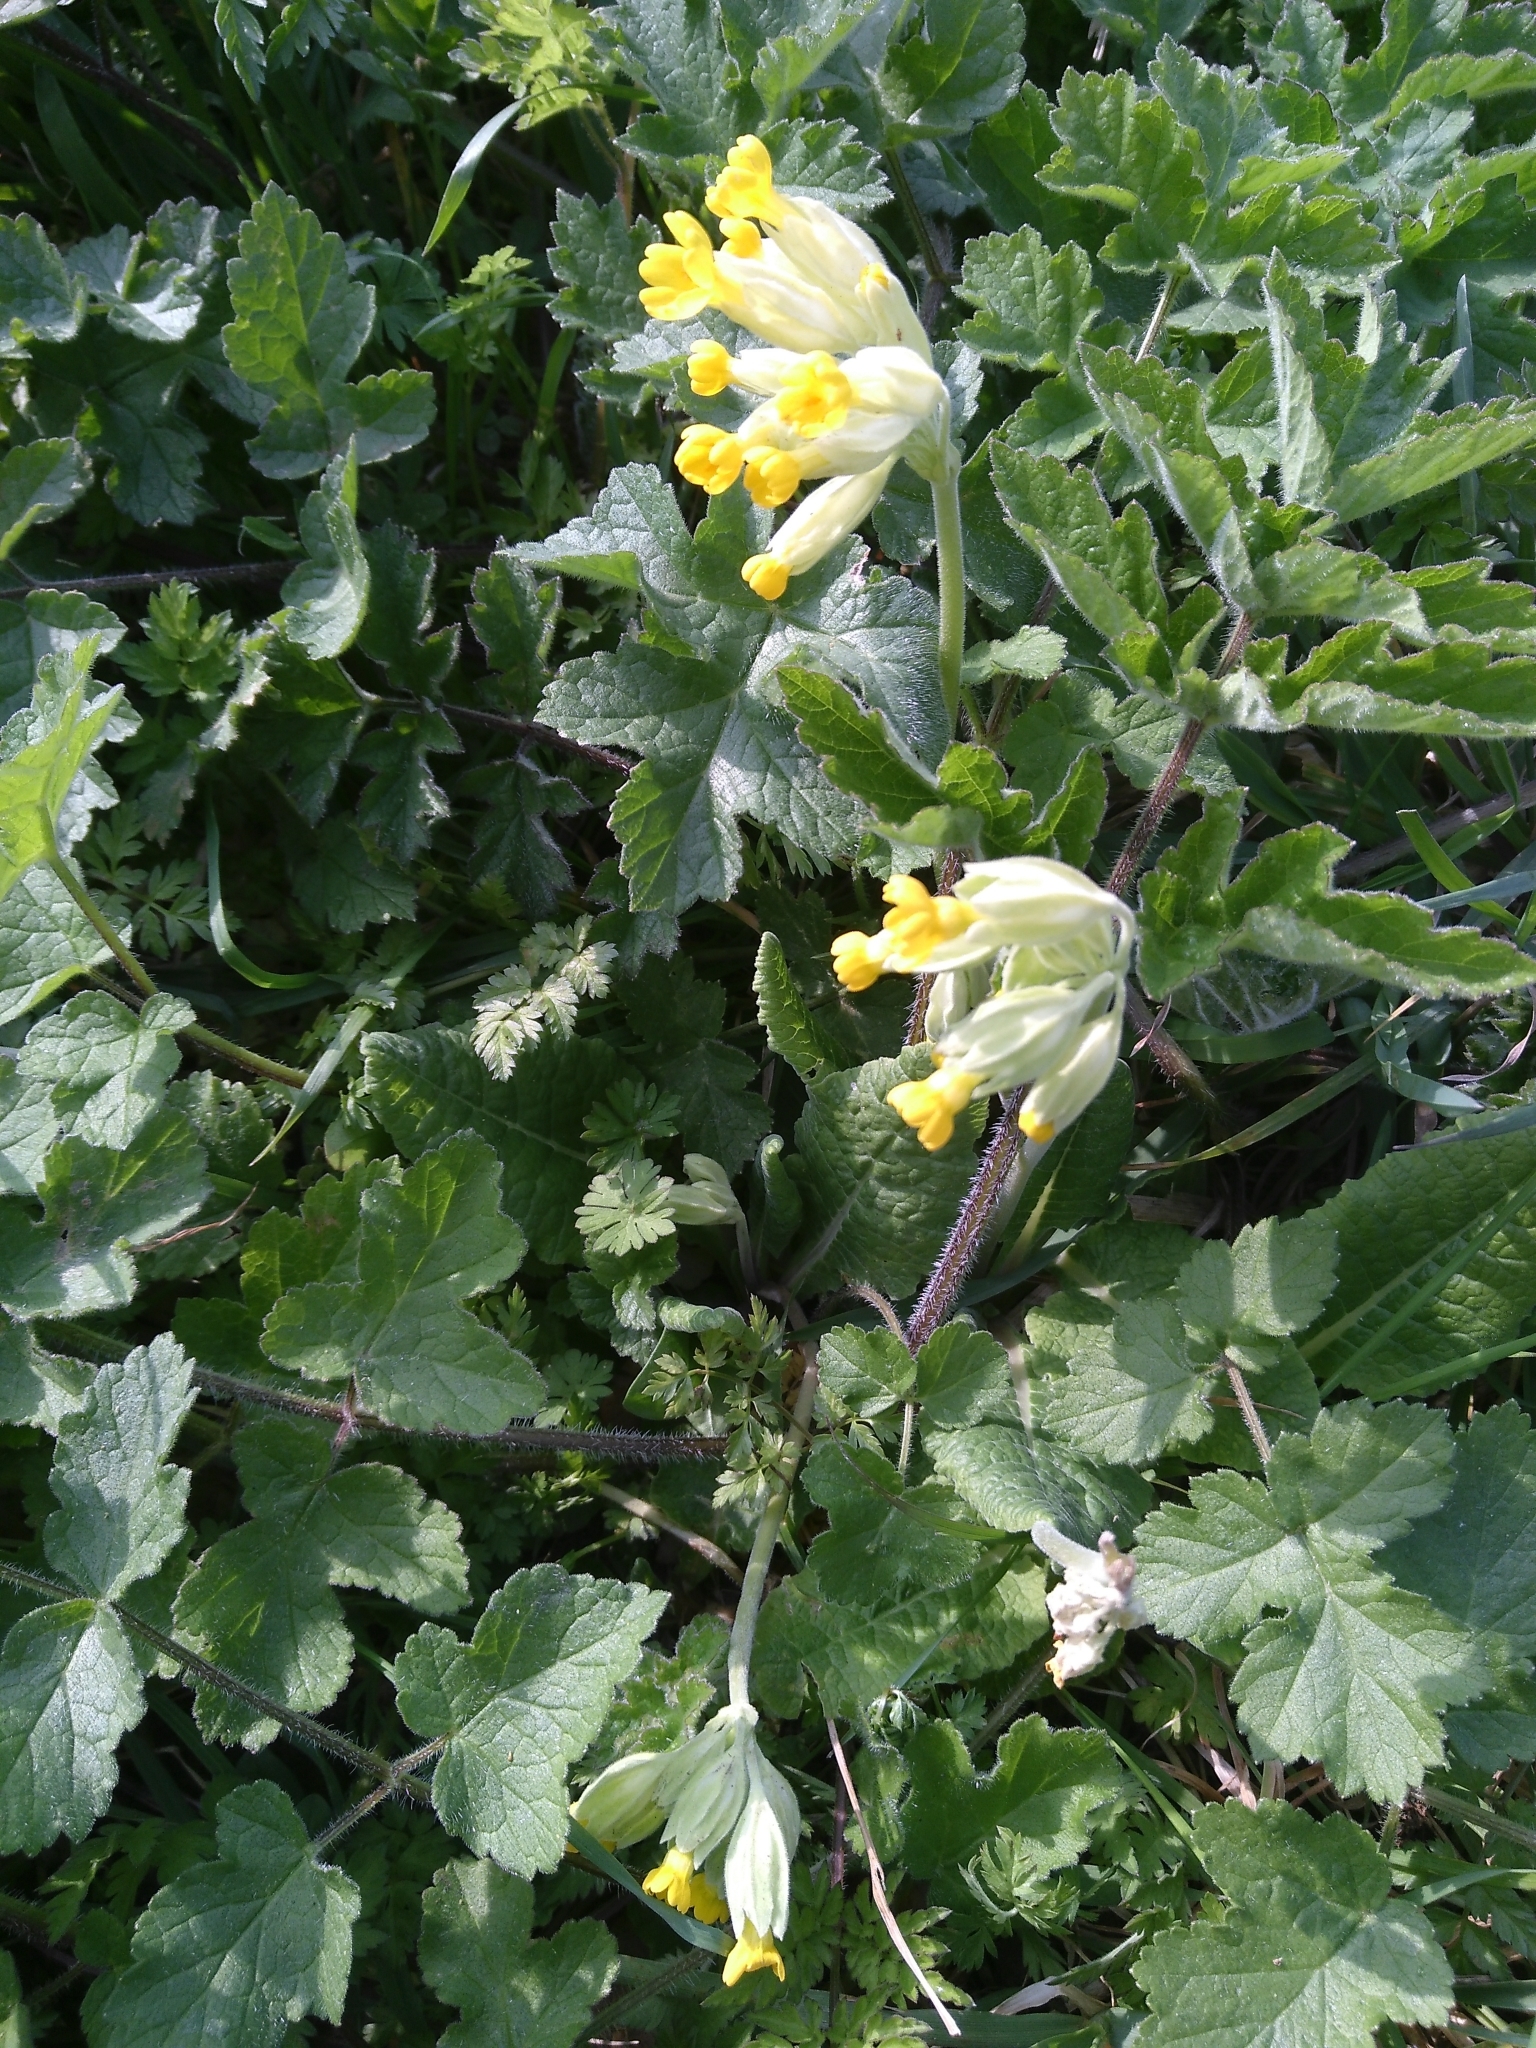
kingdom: Plantae
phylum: Tracheophyta
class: Magnoliopsida
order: Ericales
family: Primulaceae
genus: Primula
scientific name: Primula veris
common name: Cowslip
